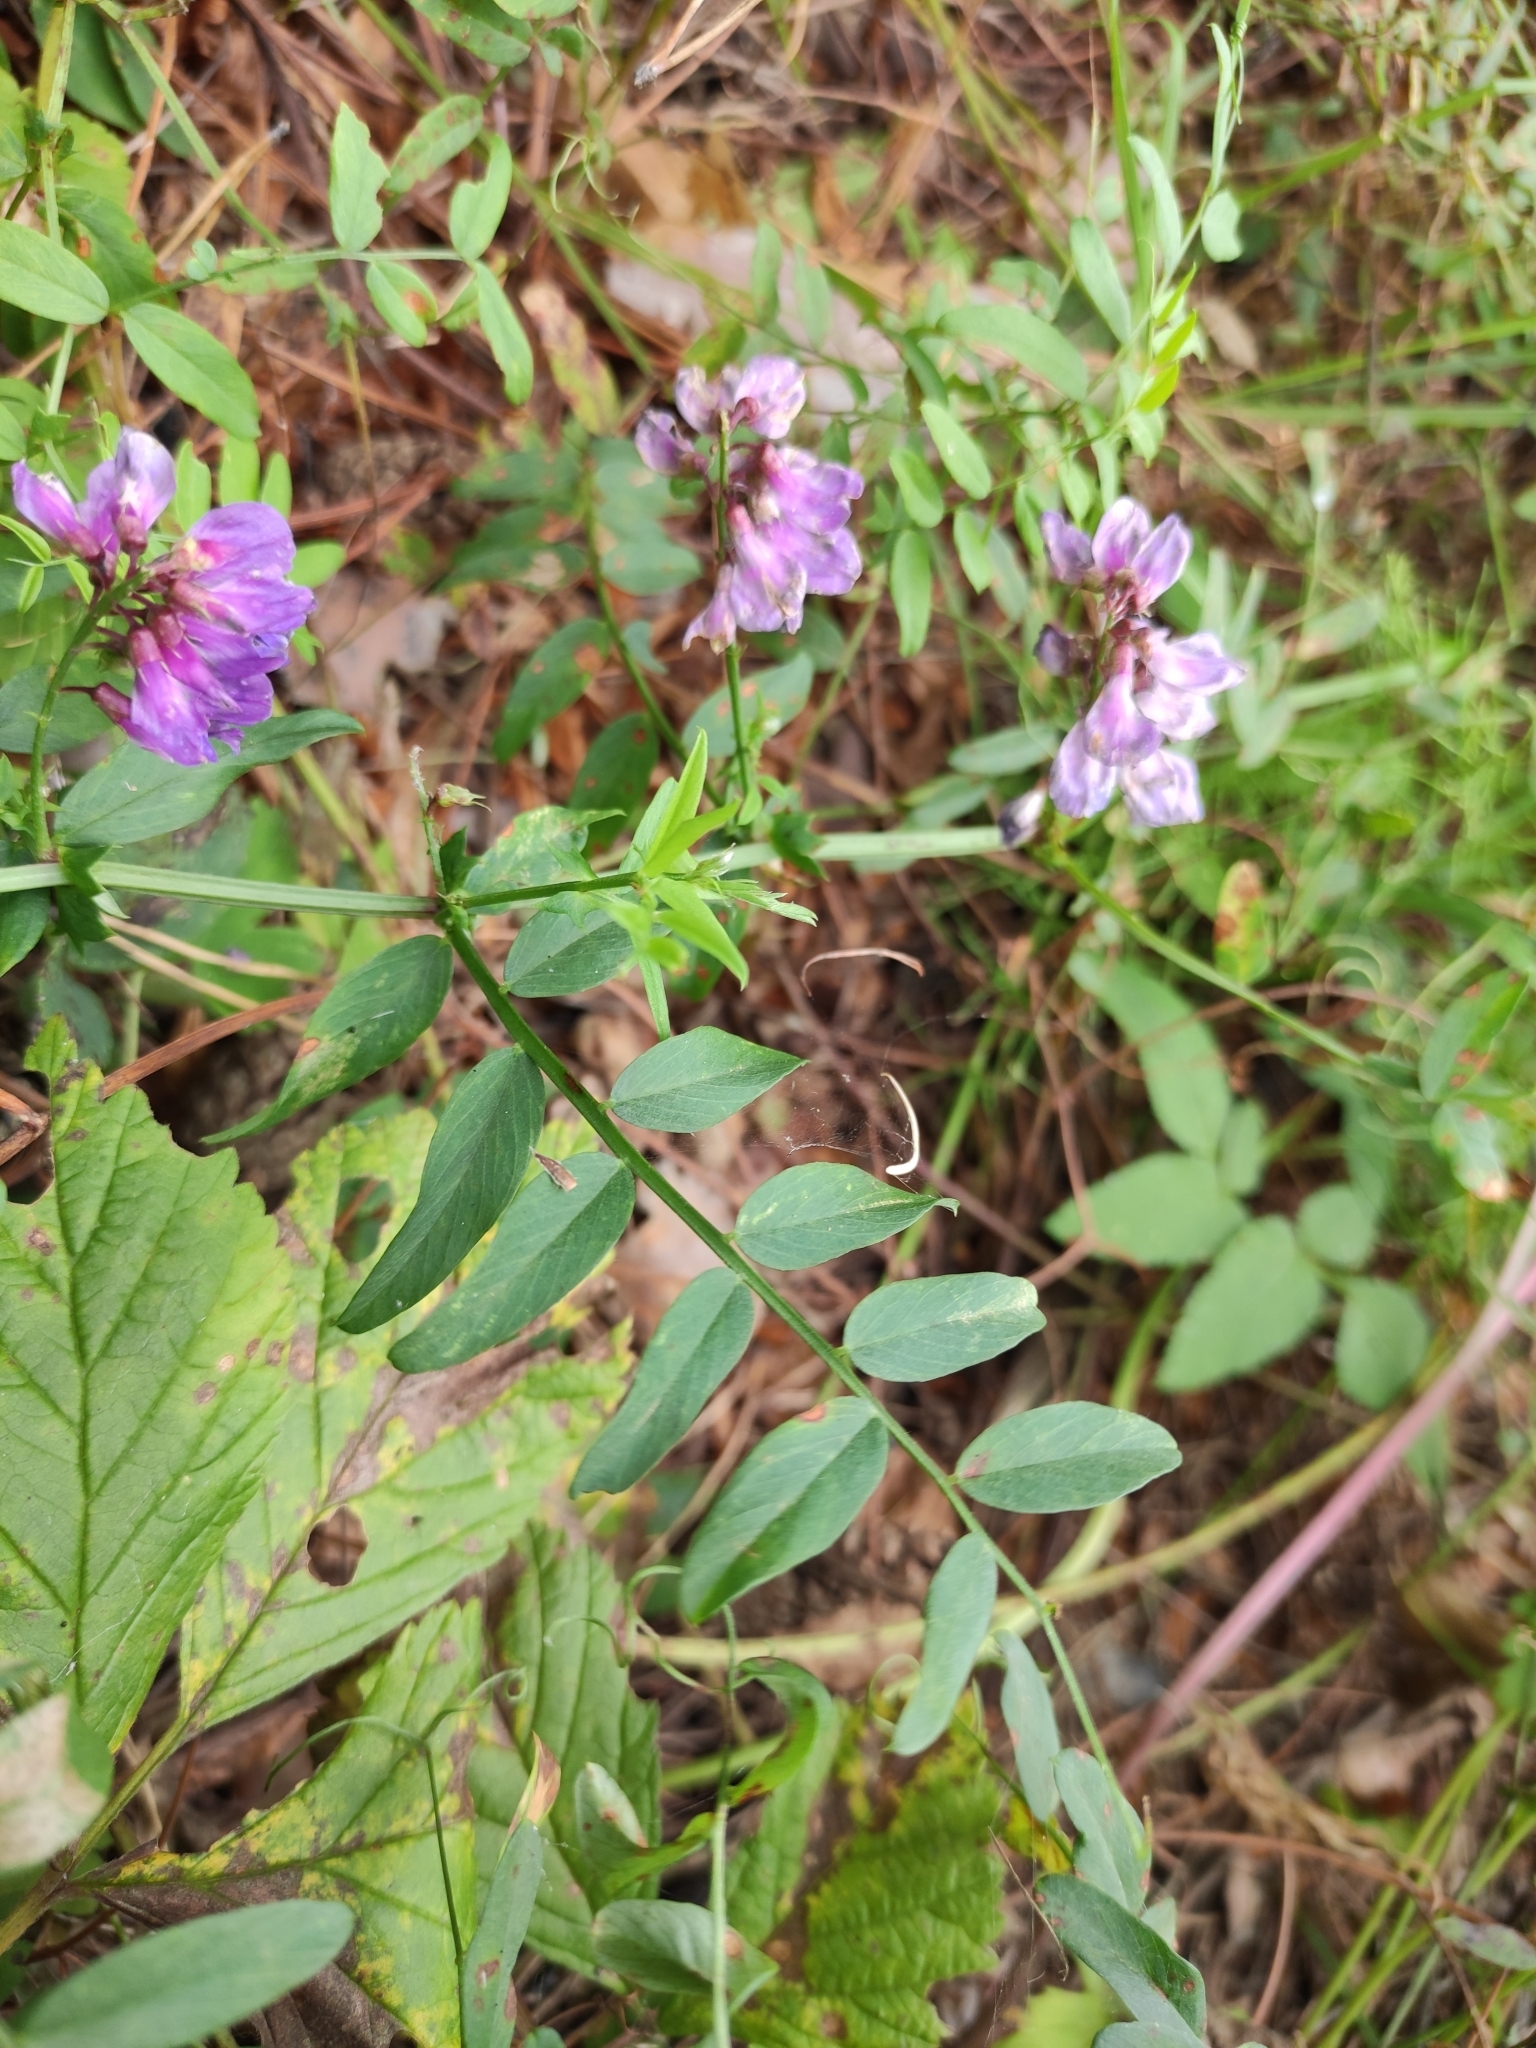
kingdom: Plantae
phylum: Tracheophyta
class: Magnoliopsida
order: Fabales
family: Fabaceae
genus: Vicia
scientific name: Vicia amoena
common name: Cheder ebs
